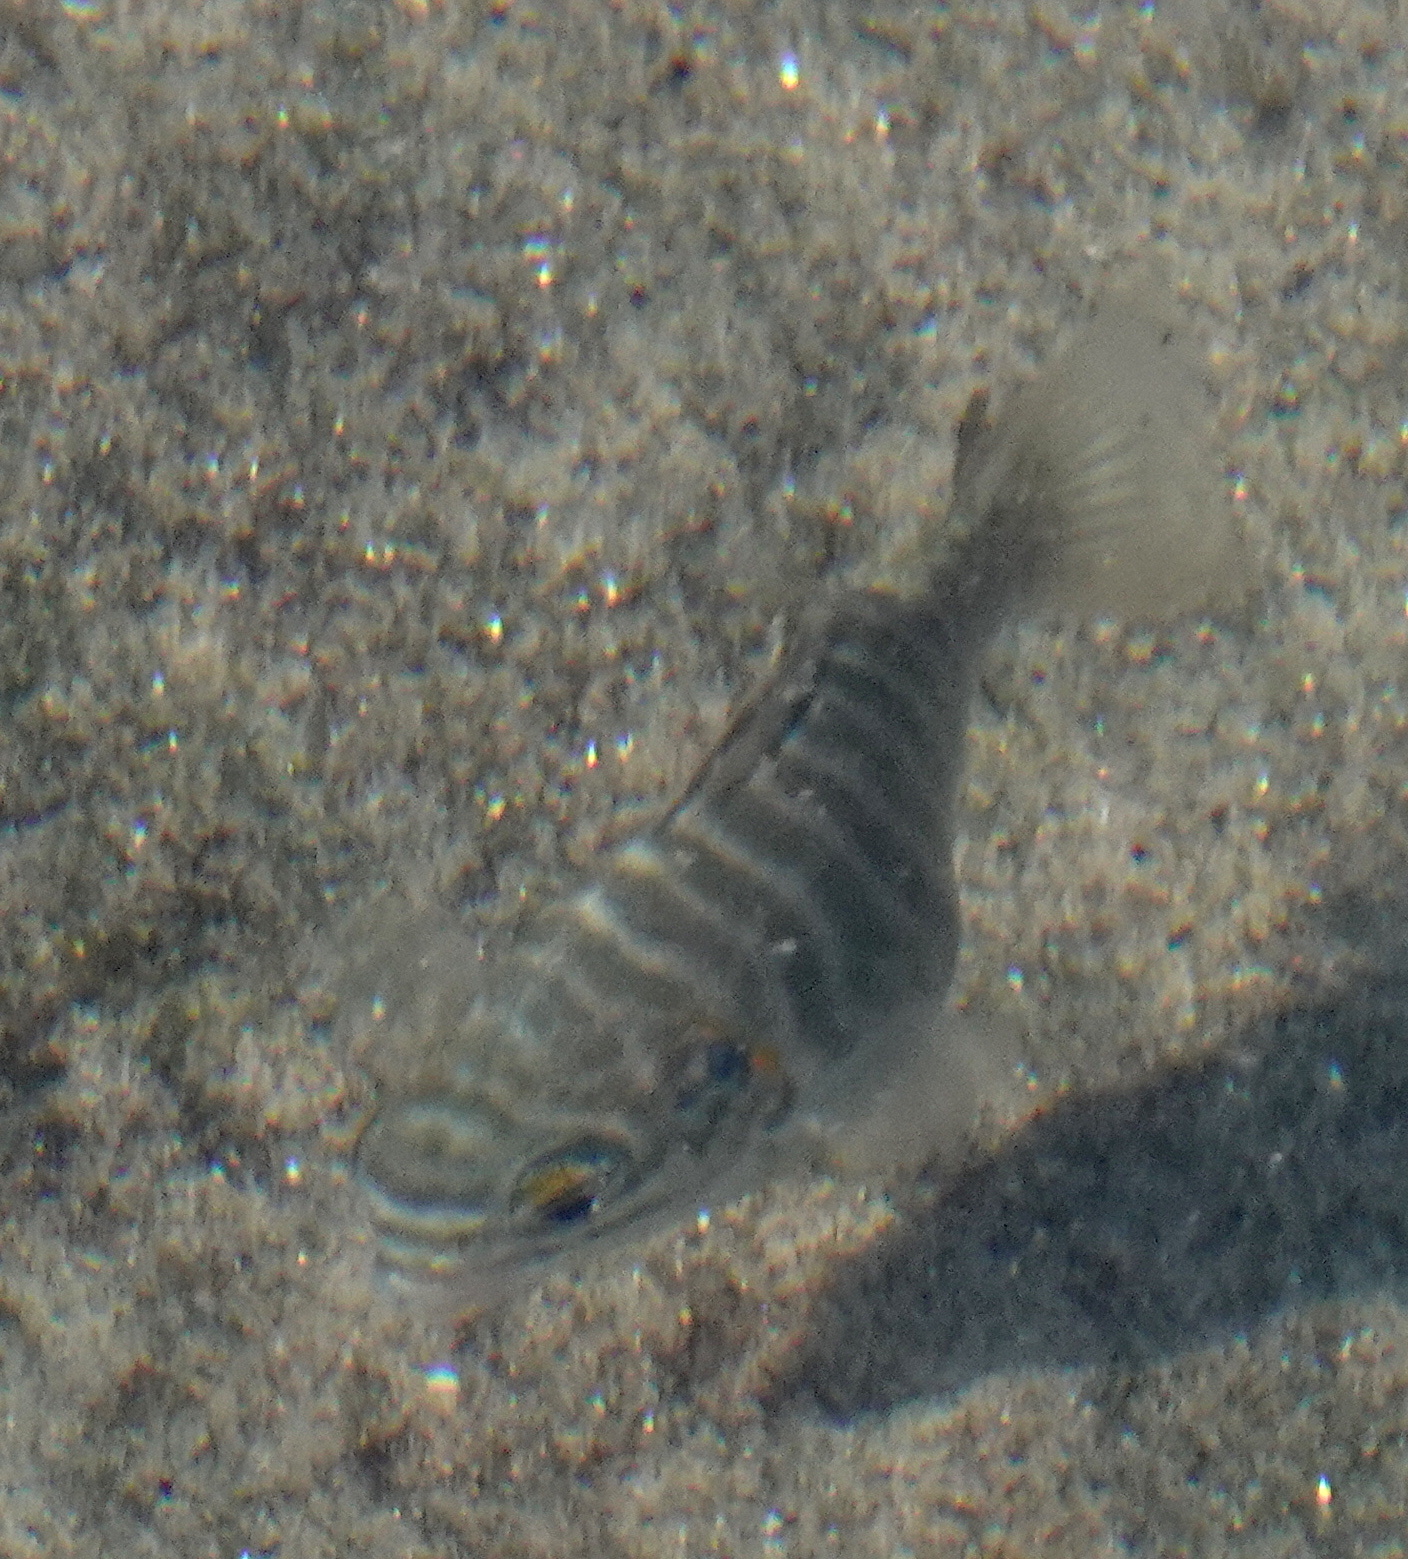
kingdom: Animalia
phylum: Chordata
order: Perciformes
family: Kyphosidae
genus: Kyphosus
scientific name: Kyphosus azureus
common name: Perch
